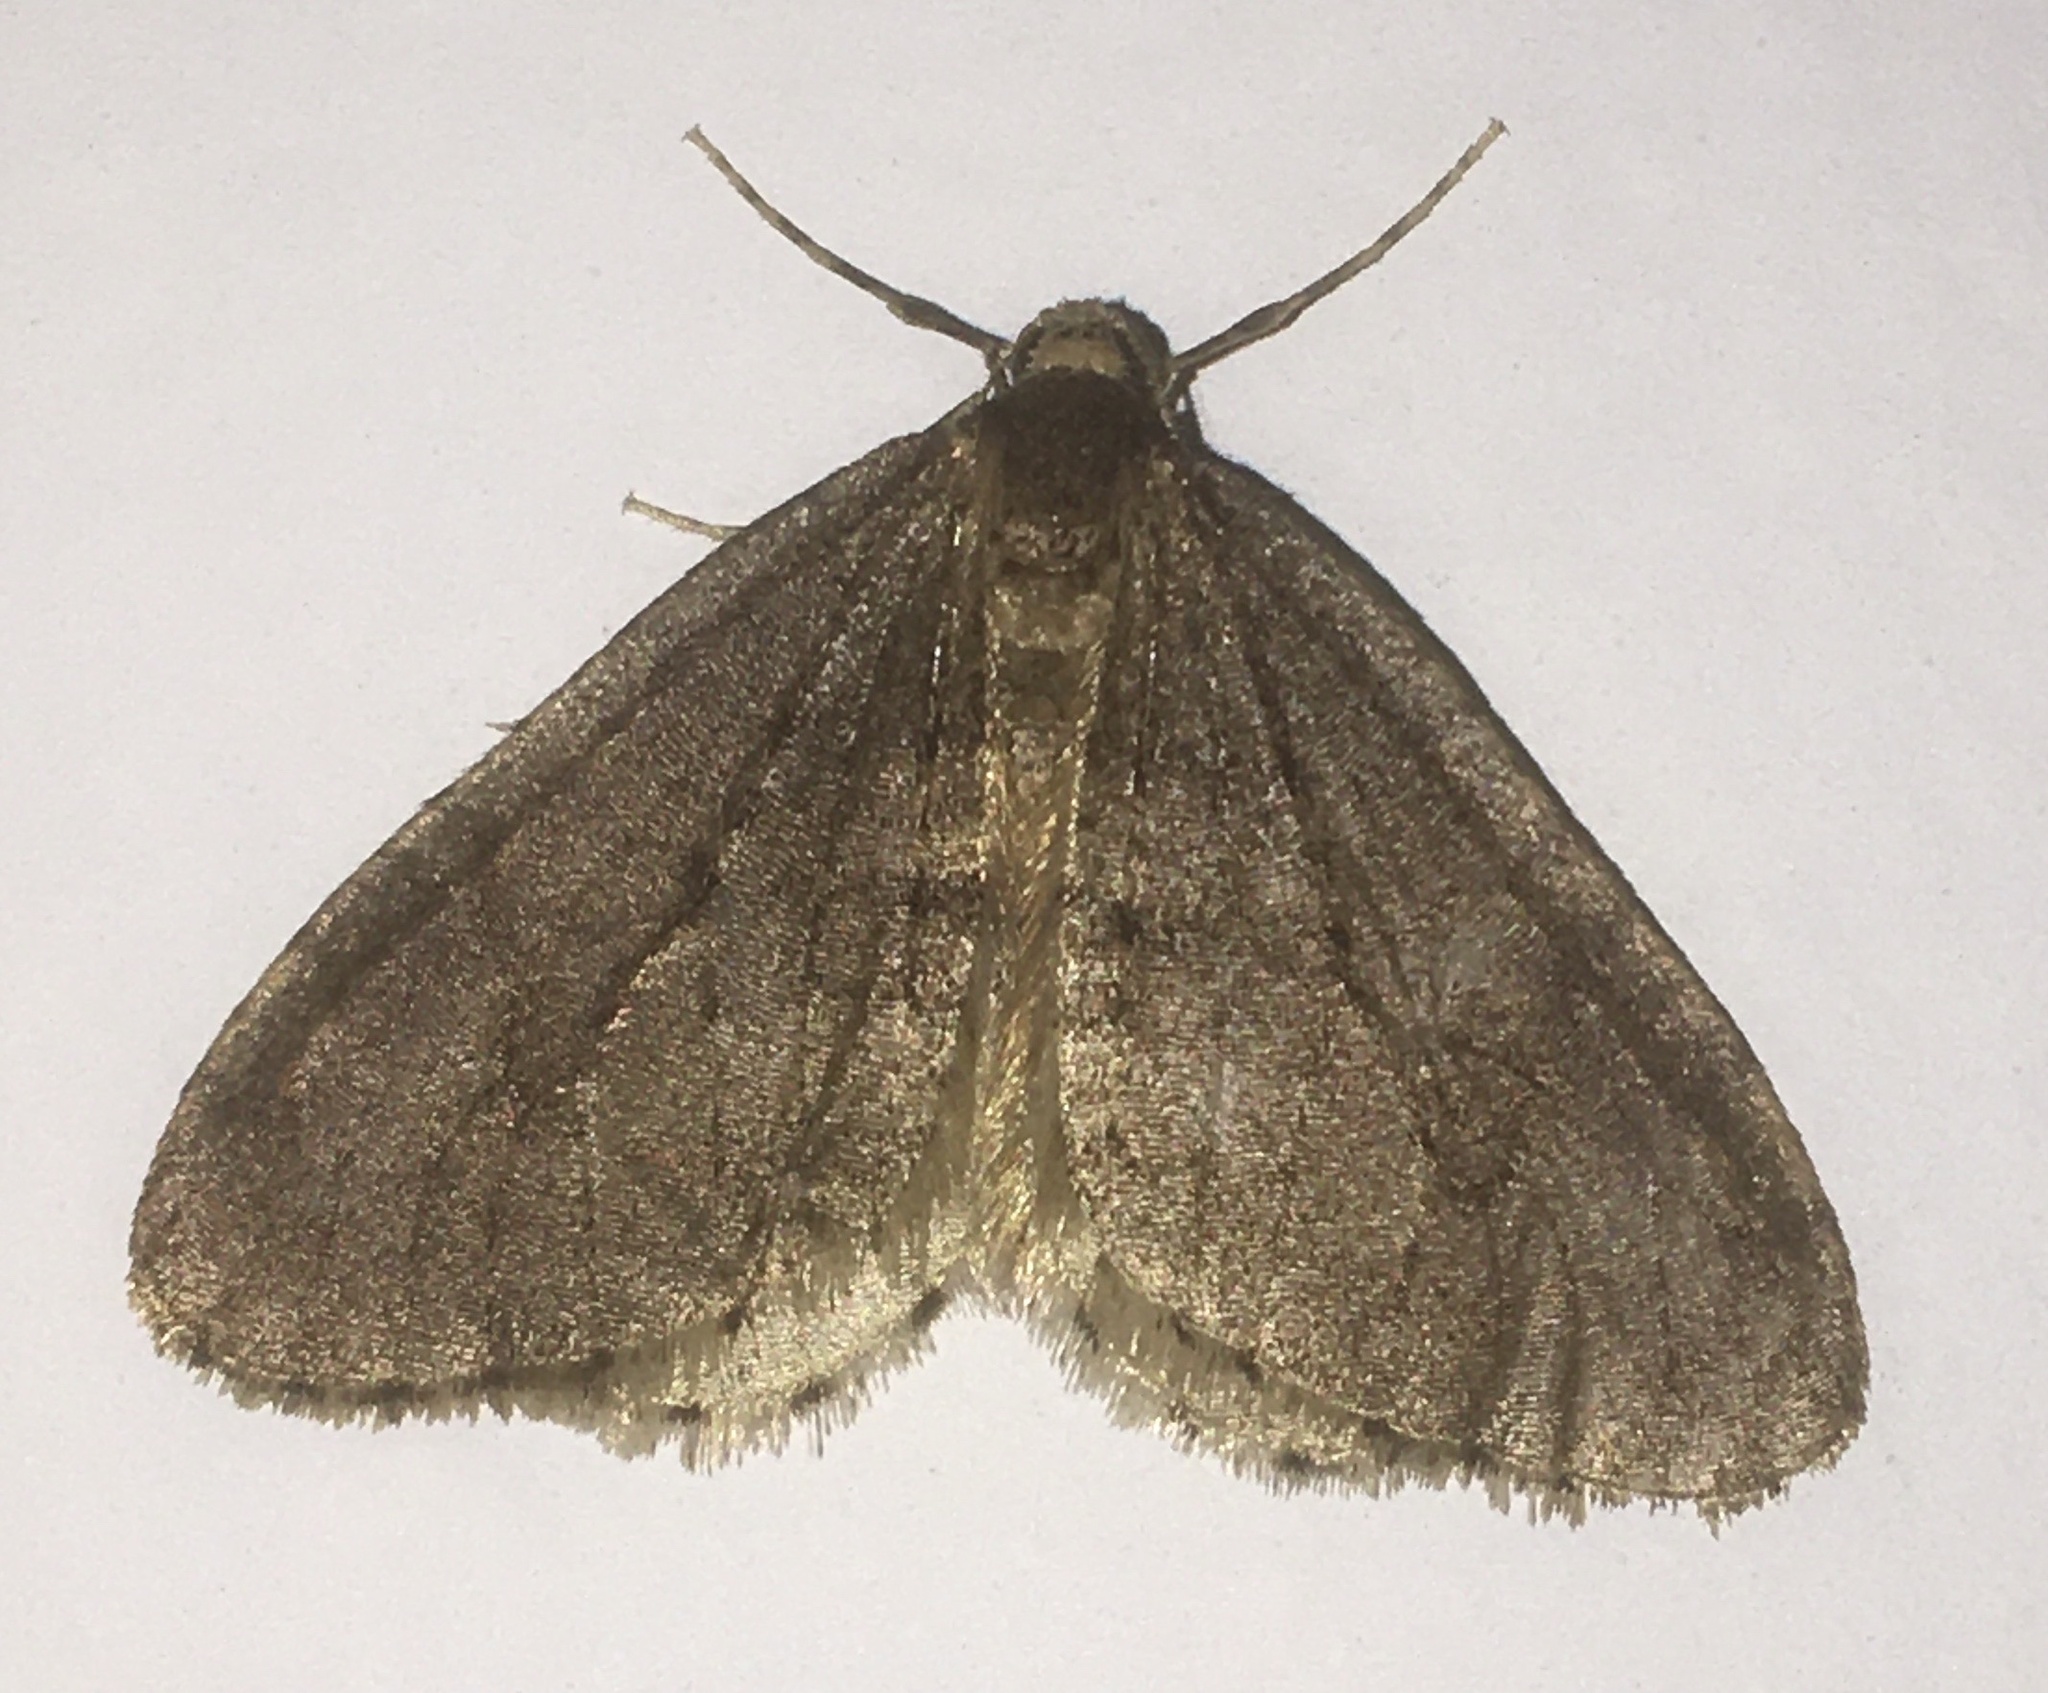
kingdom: Animalia
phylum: Arthropoda
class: Insecta
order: Lepidoptera
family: Geometridae
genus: Operophtera
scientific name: Operophtera brumata
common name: Winter moth
